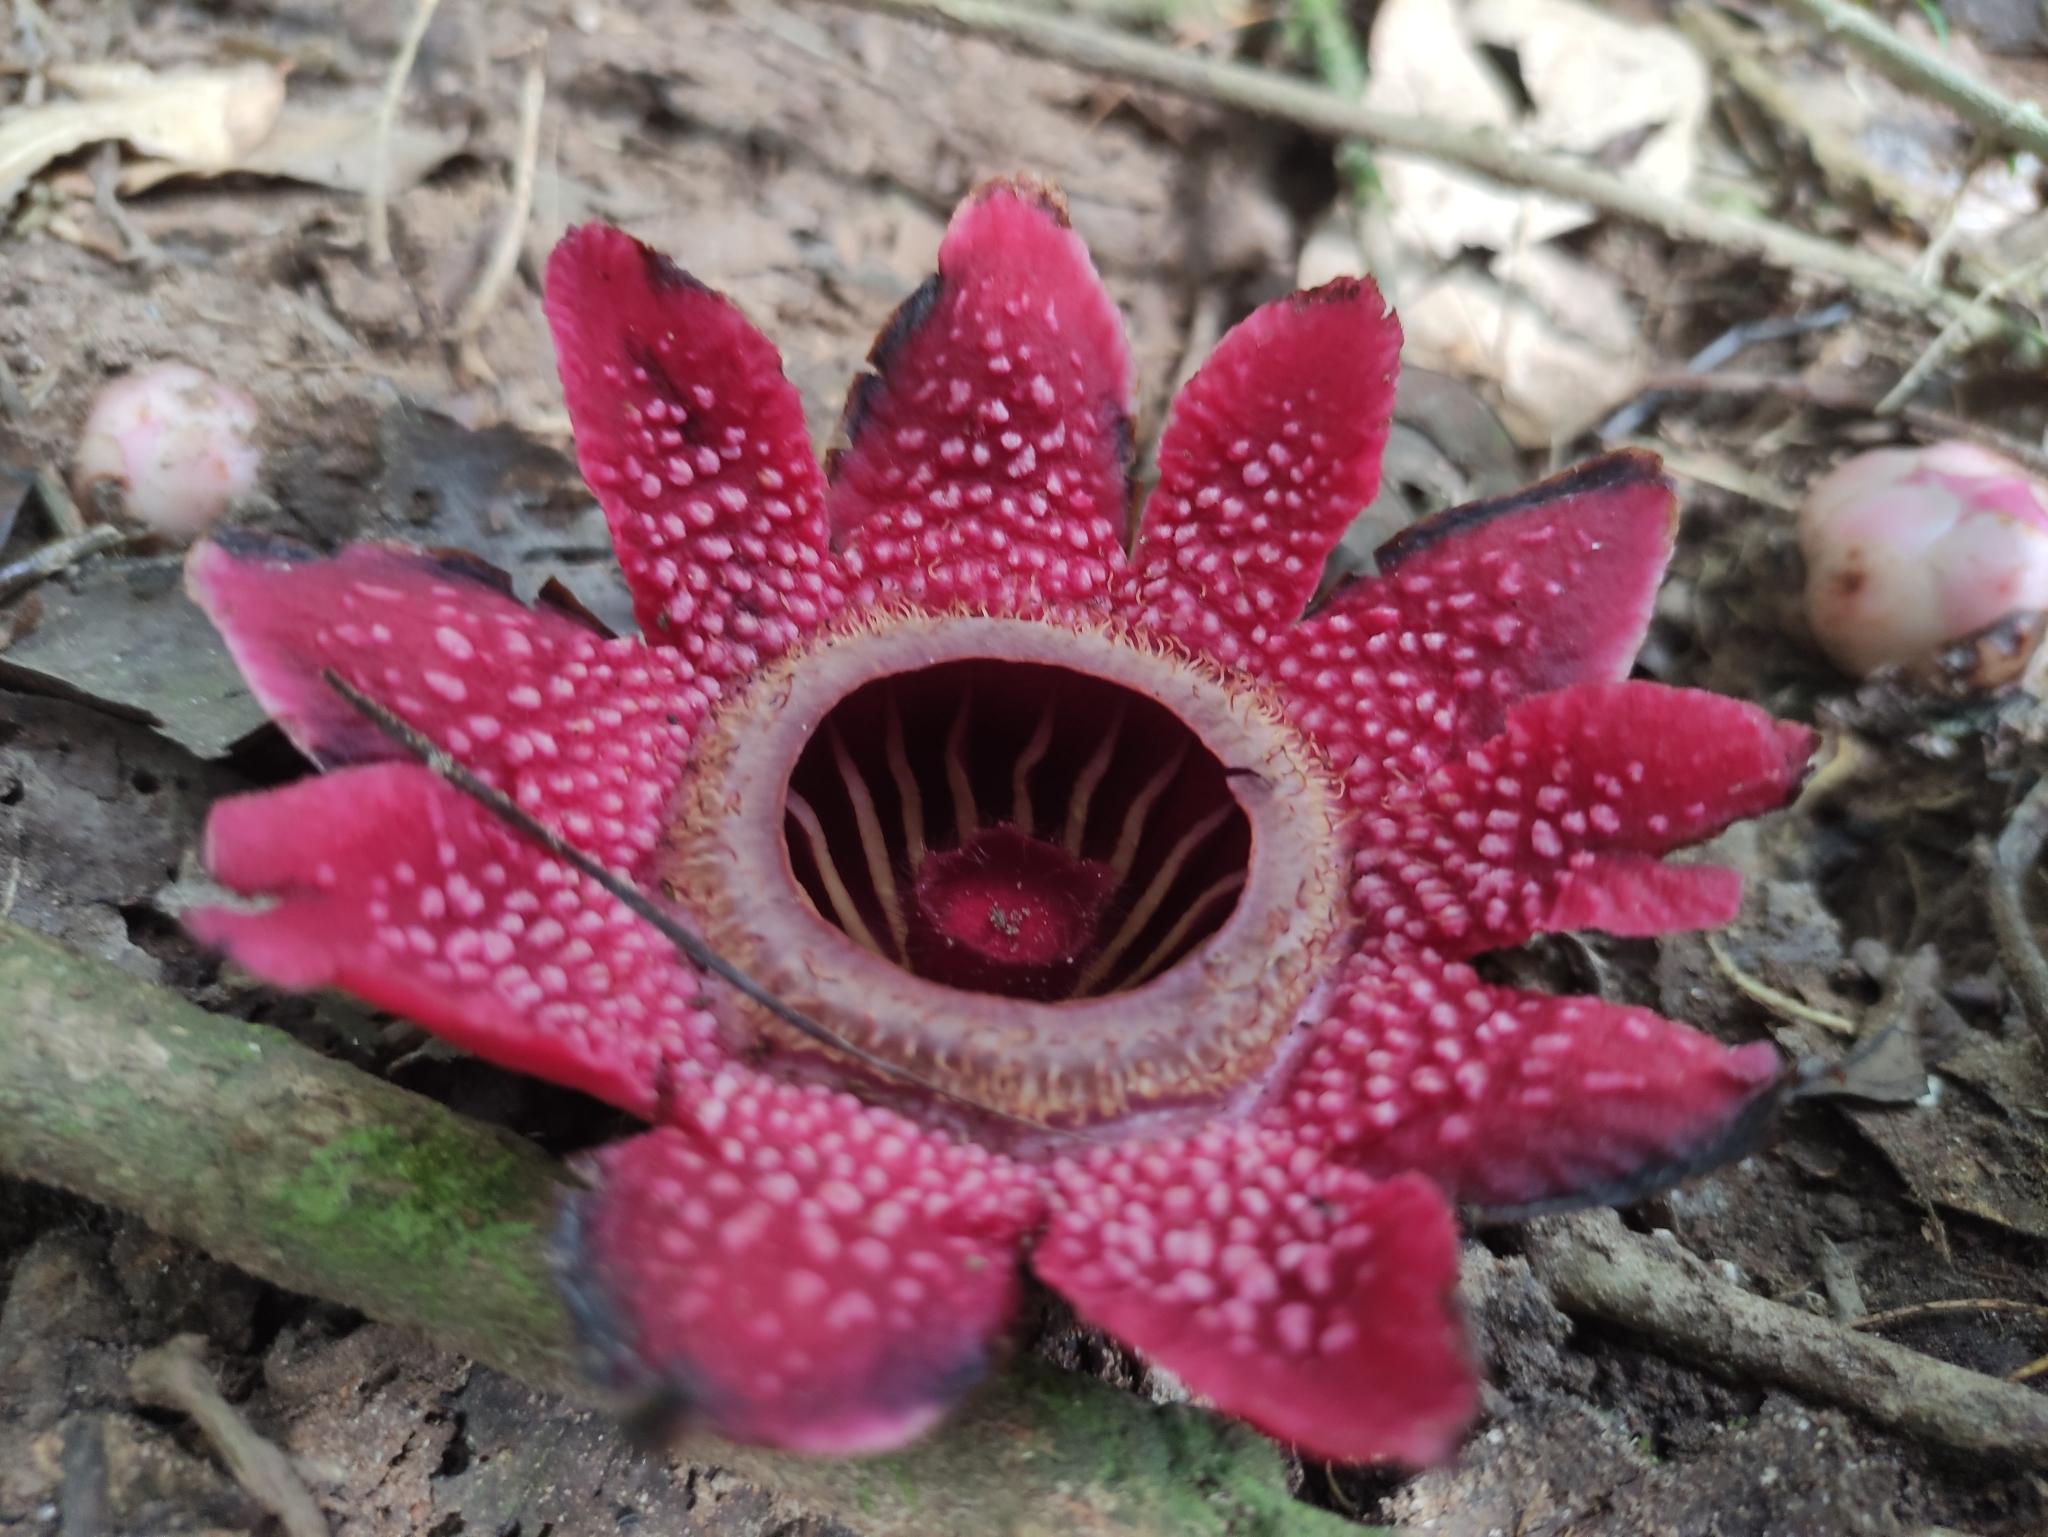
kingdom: Plantae
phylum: Tracheophyta
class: Magnoliopsida
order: Malpighiales
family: Rafflesiaceae
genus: Sapria
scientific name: Sapria ram
